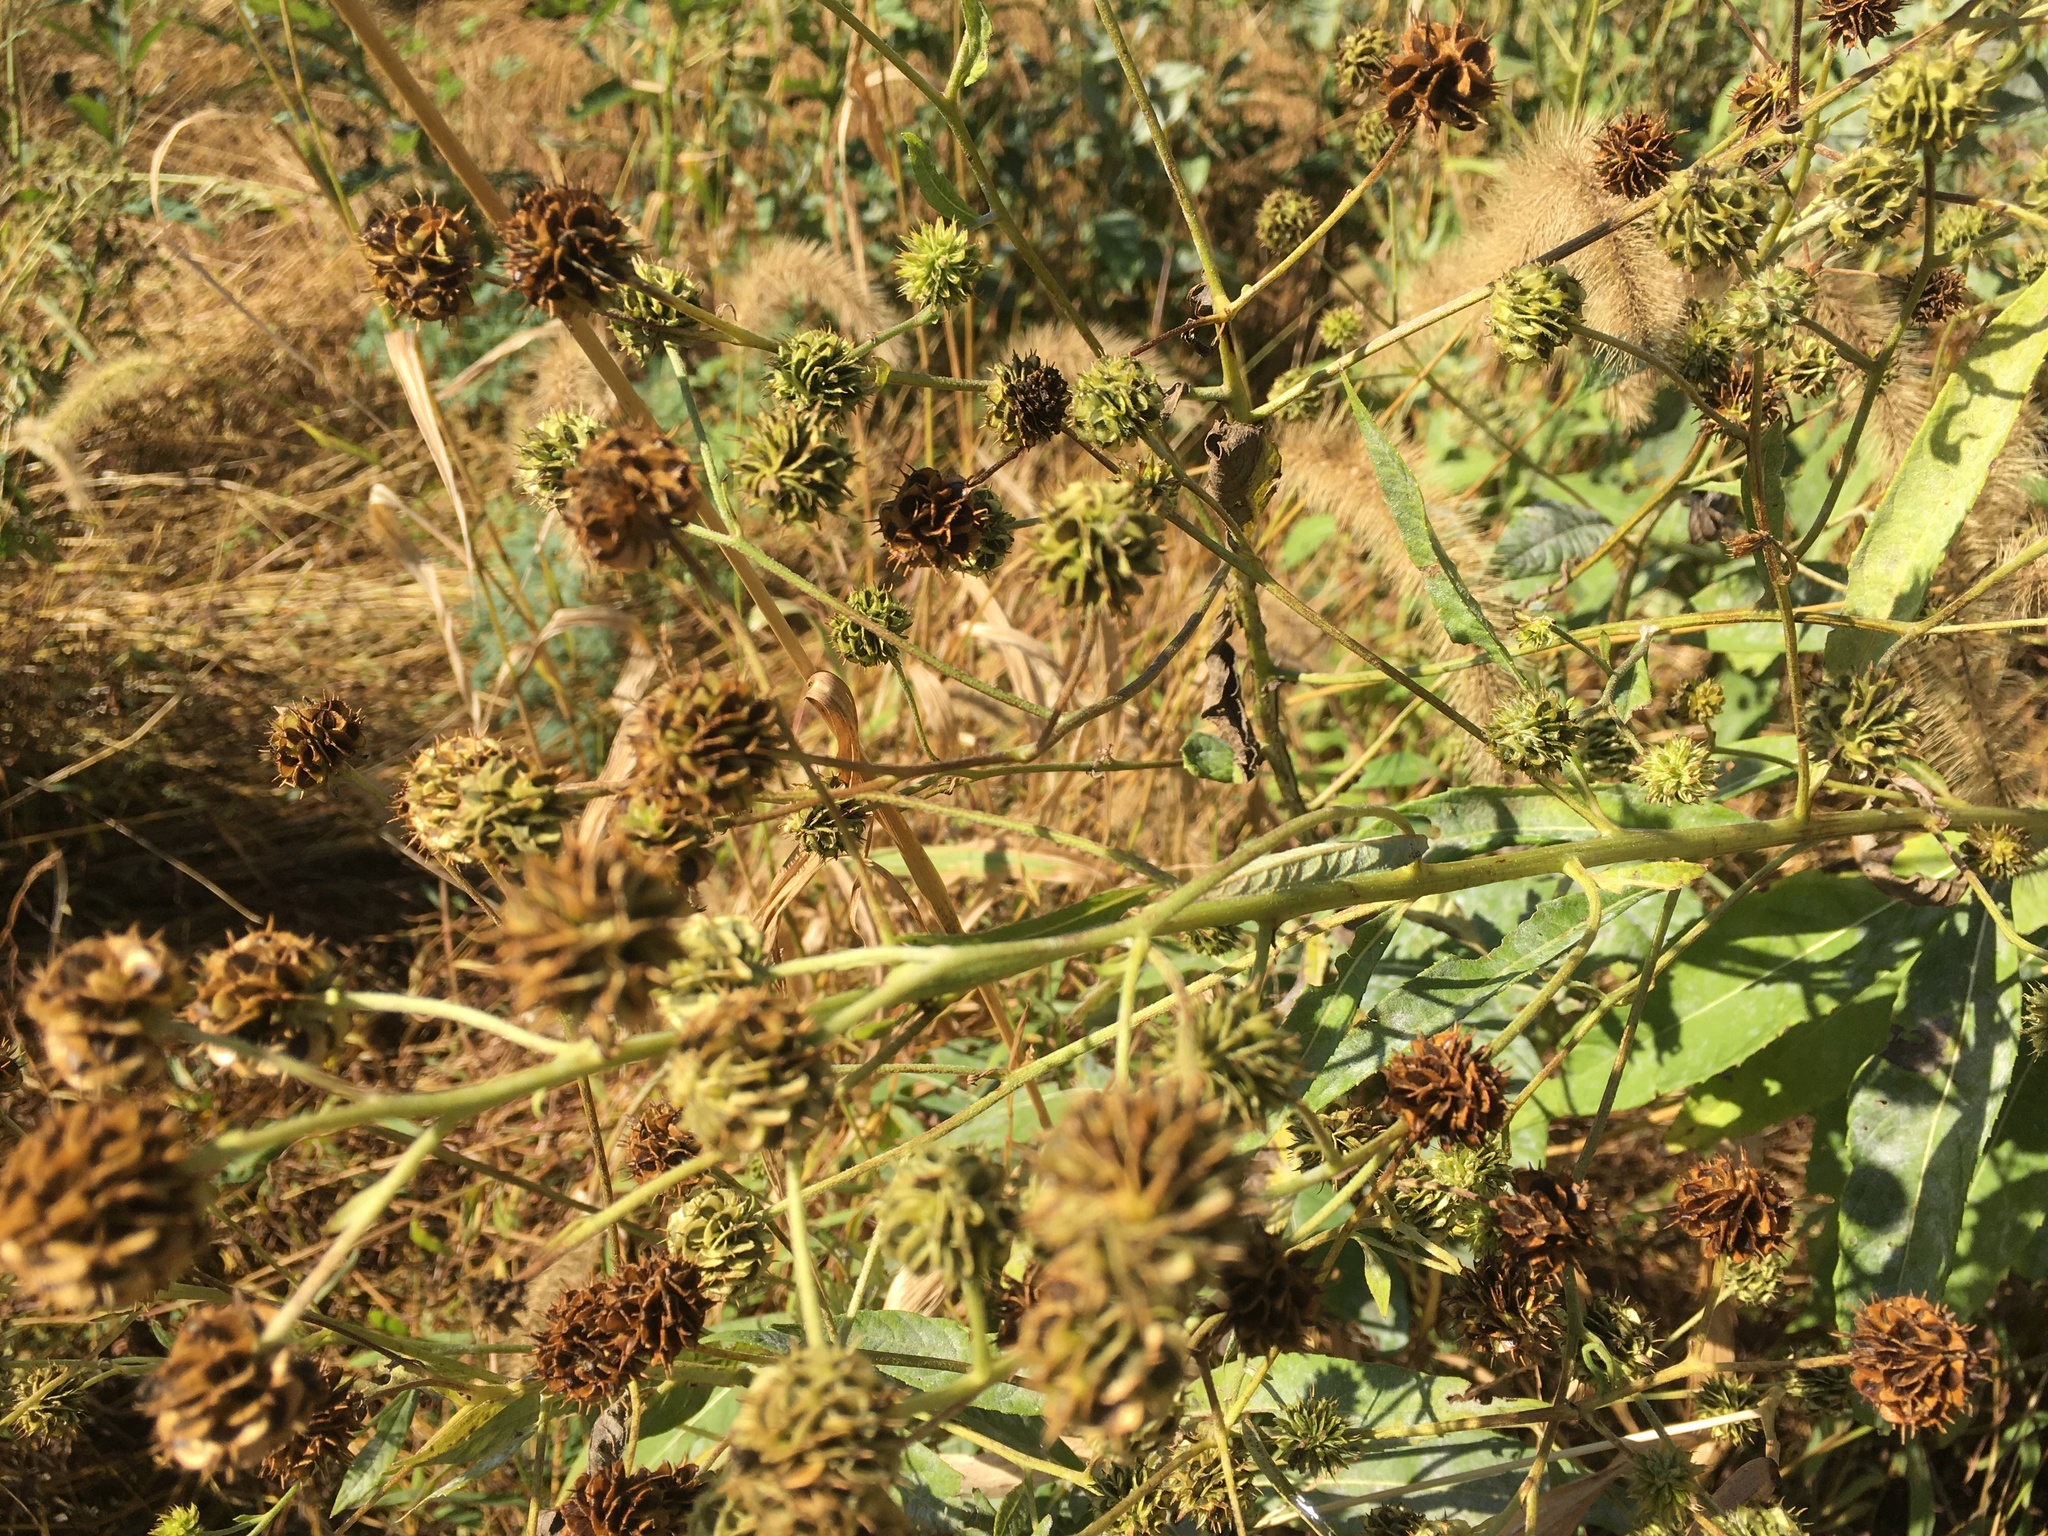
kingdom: Plantae
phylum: Tracheophyta
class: Magnoliopsida
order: Asterales
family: Asteraceae
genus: Verbesina
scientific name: Verbesina alternifolia
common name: Wingstem
